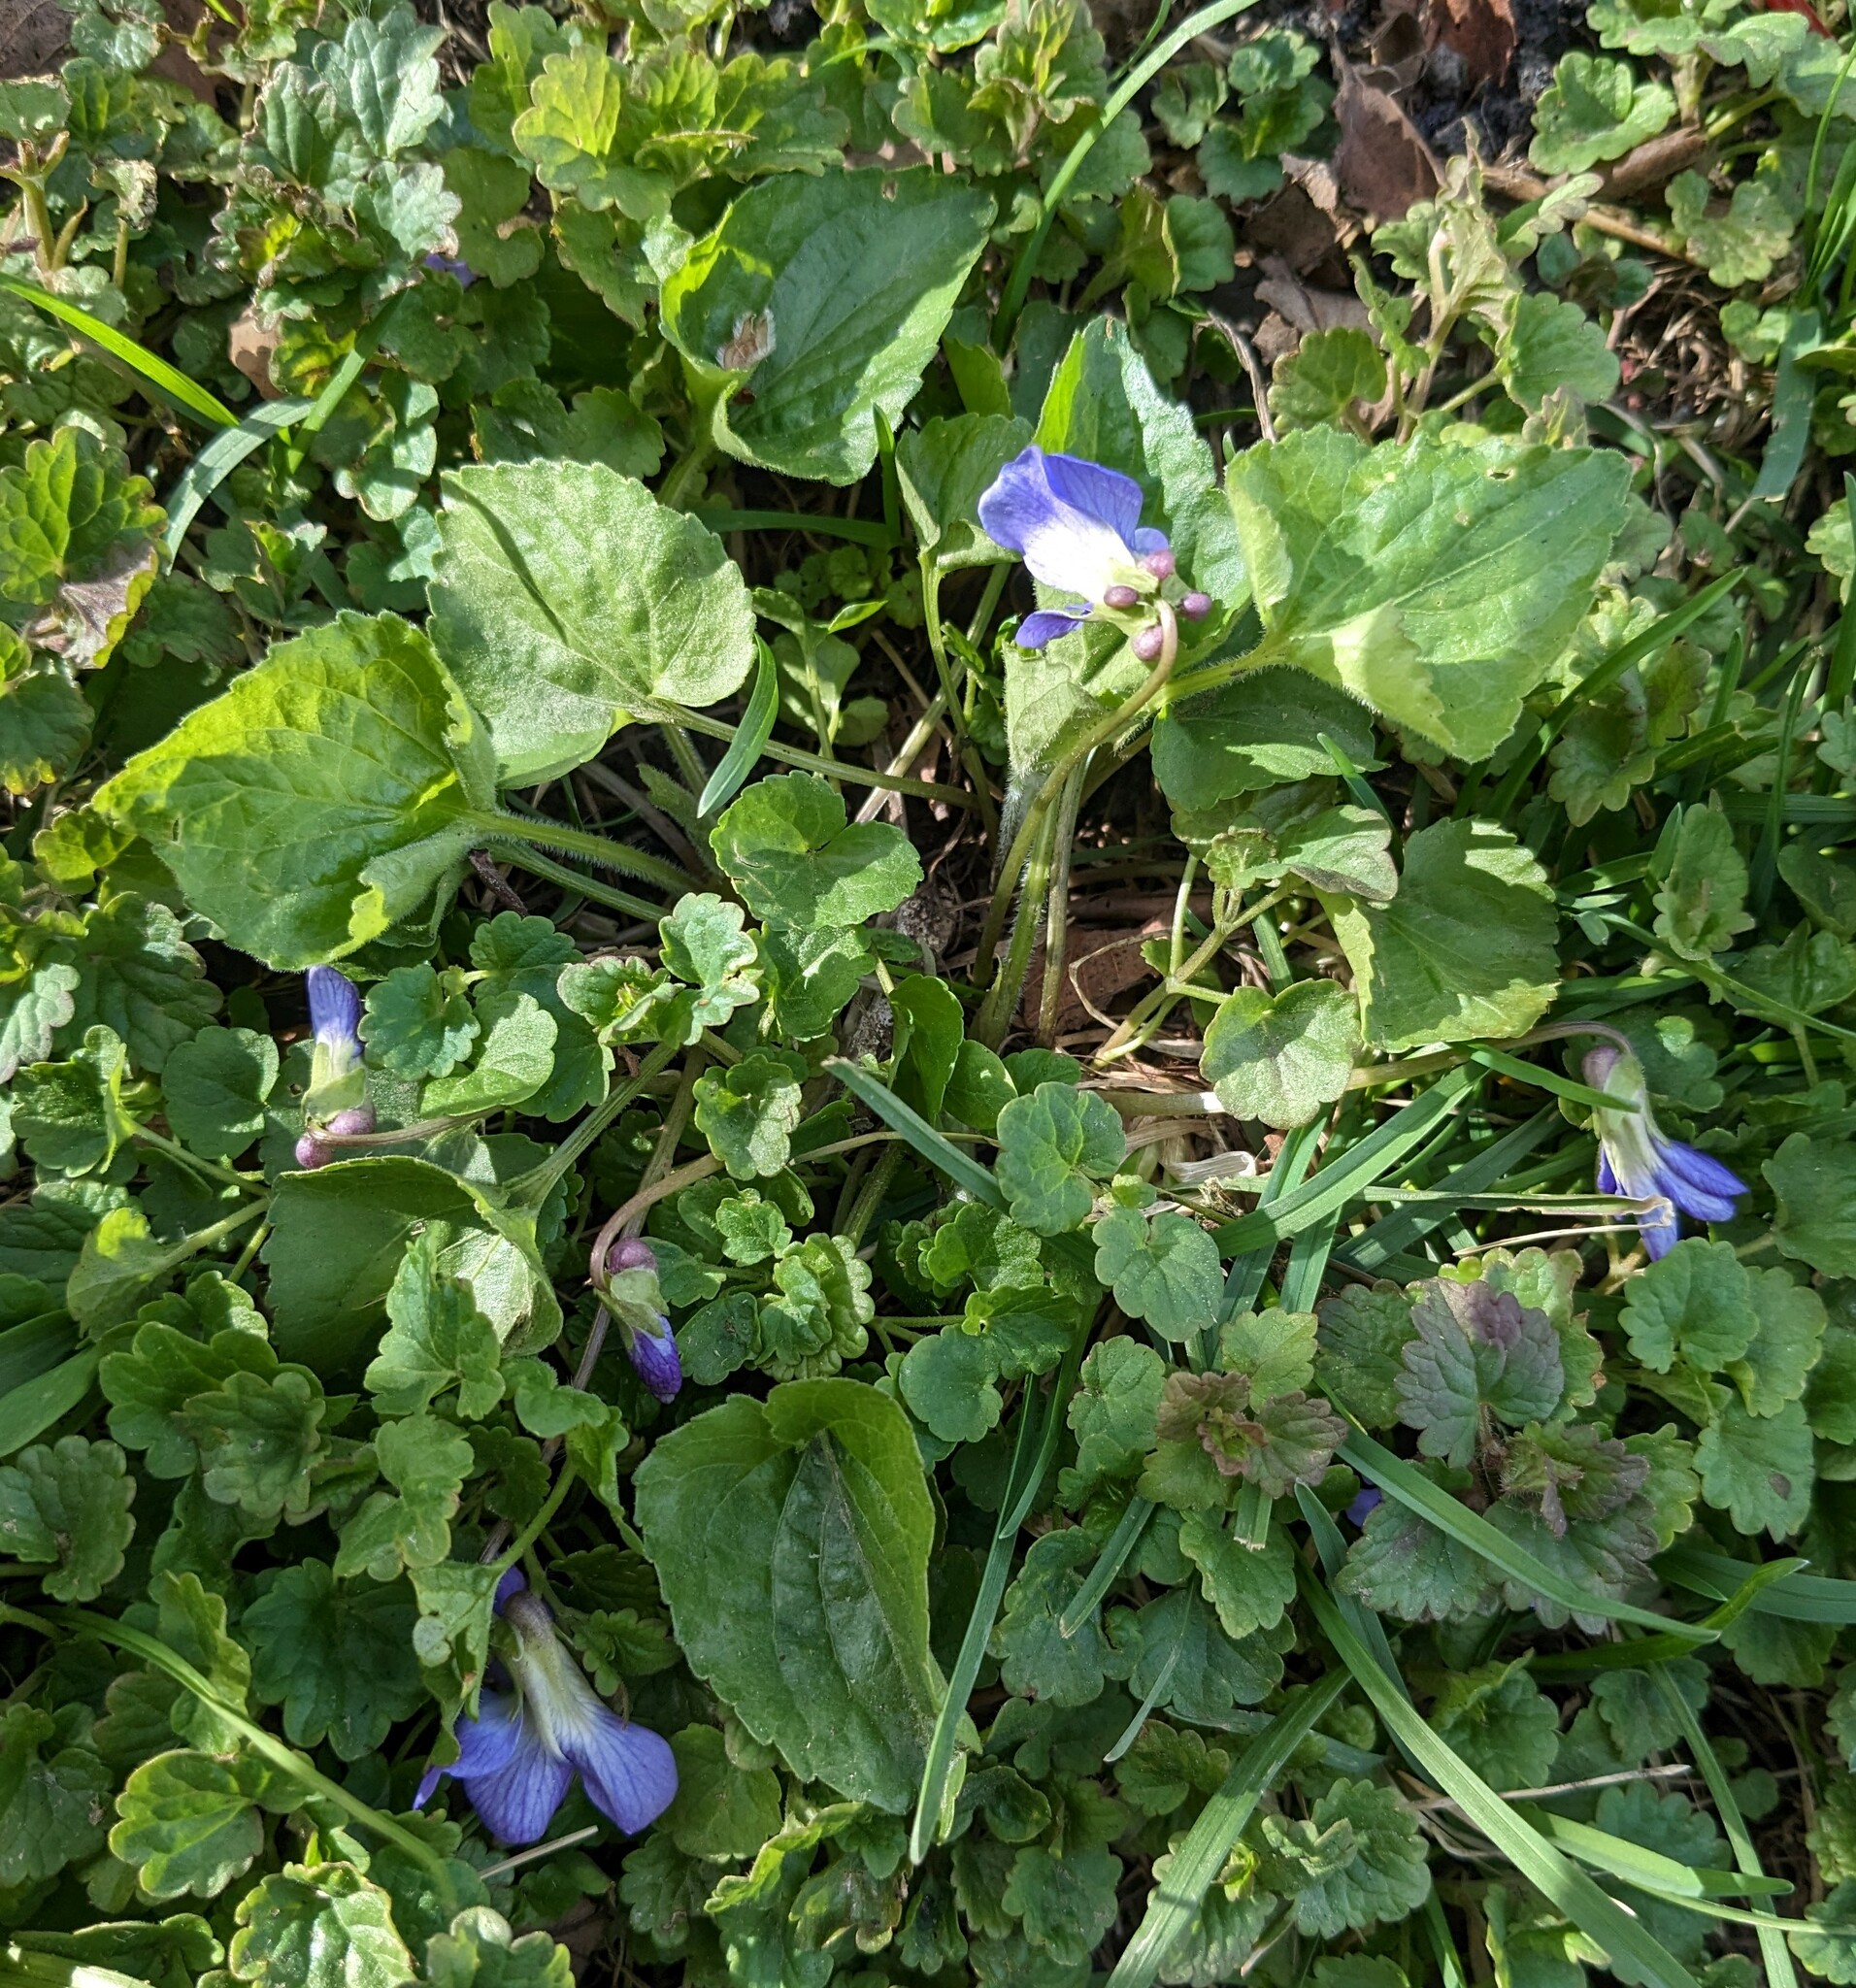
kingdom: Plantae
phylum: Tracheophyta
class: Magnoliopsida
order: Malpighiales
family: Violaceae
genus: Viola
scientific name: Viola sororia
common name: Dooryard violet
